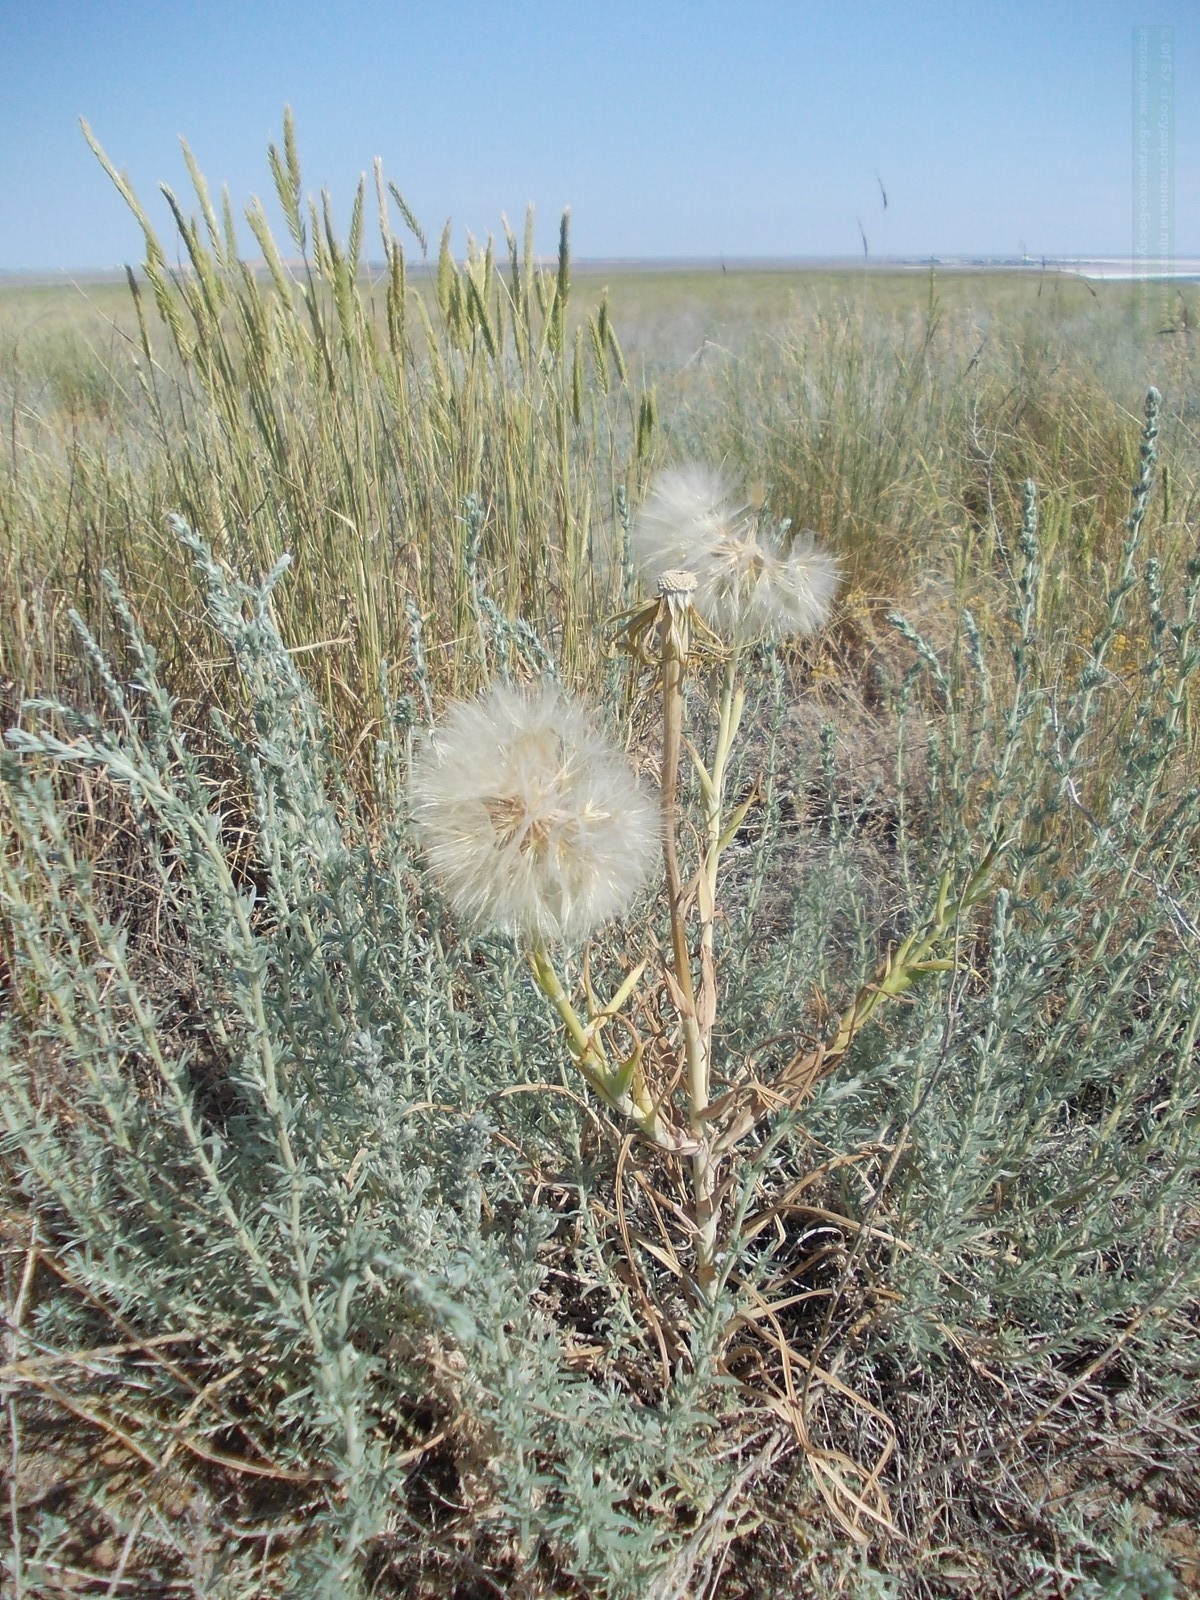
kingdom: Plantae
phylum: Tracheophyta
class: Magnoliopsida
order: Asterales
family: Asteraceae
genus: Tragopogon
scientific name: Tragopogon dubius
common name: Yellow salsify
